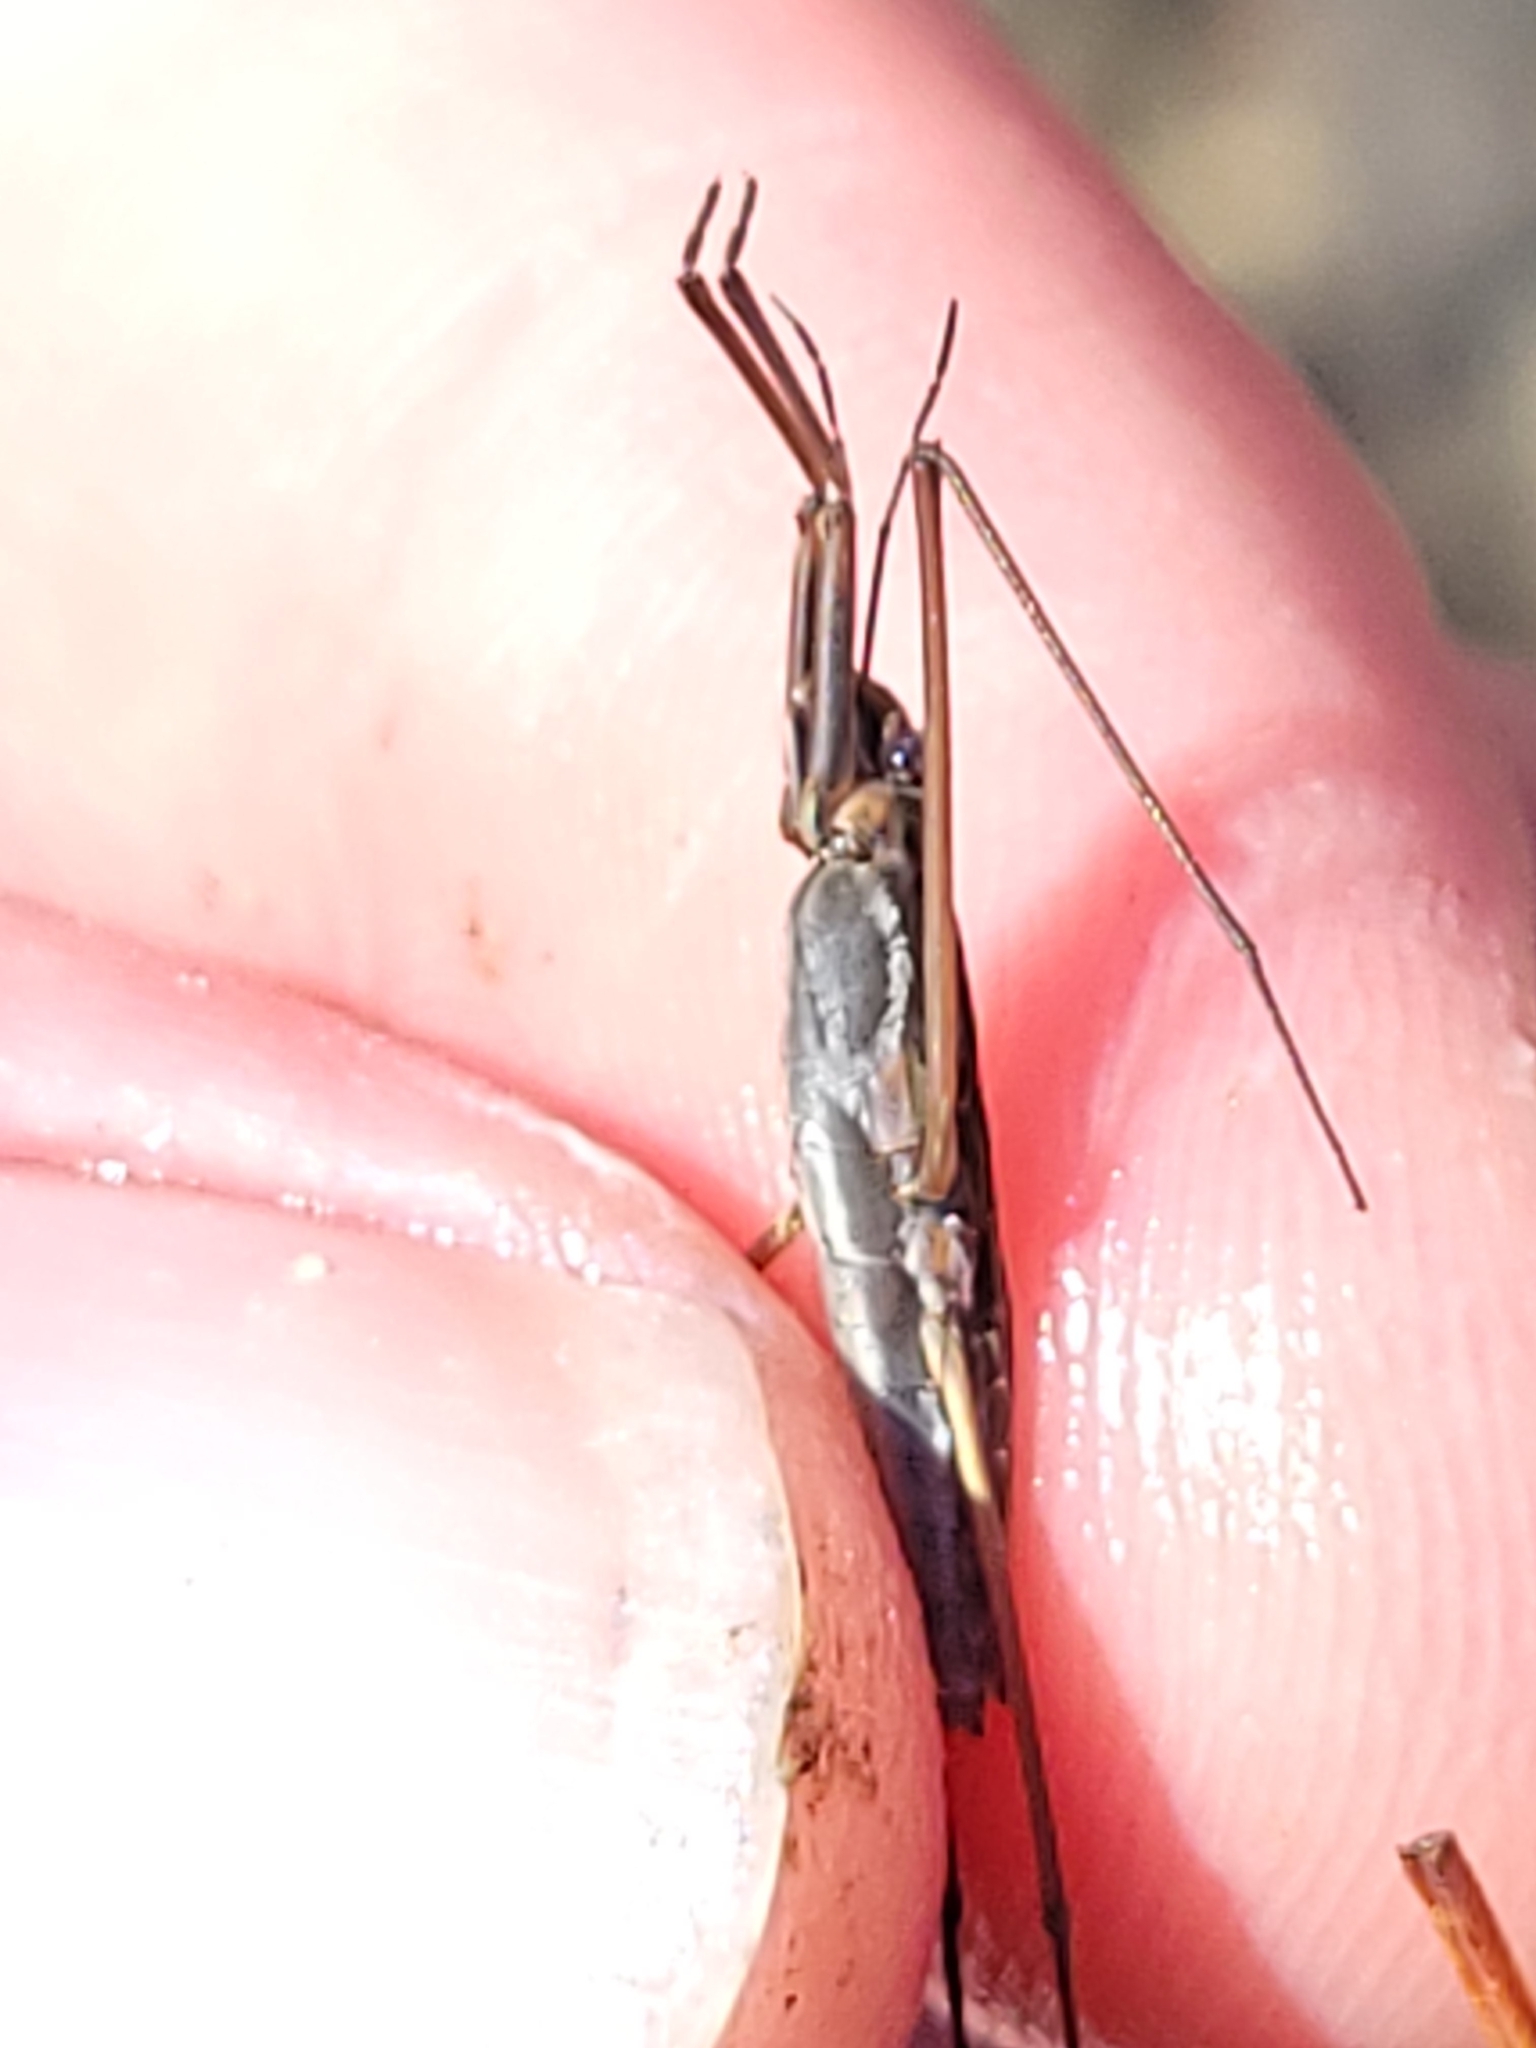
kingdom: Animalia
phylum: Arthropoda
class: Insecta
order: Hemiptera
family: Gerridae
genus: Aquarius
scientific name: Aquarius remigis
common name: Common water strider
